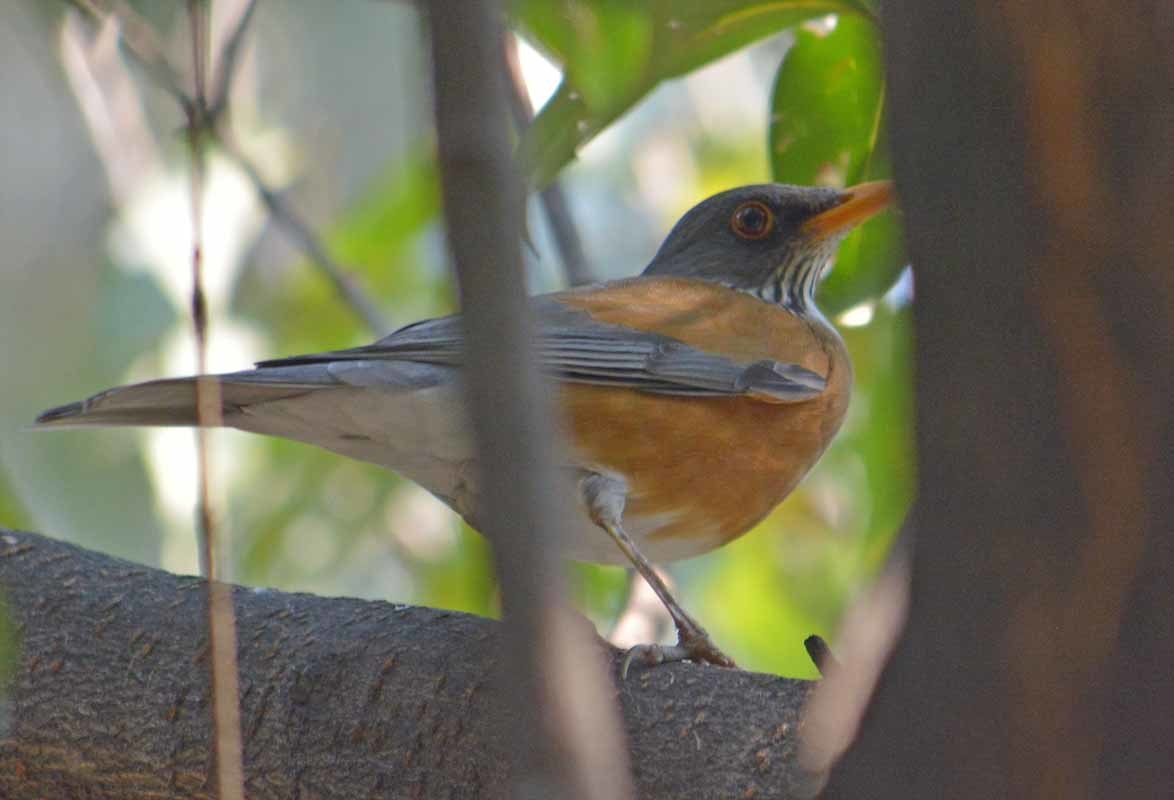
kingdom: Animalia
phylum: Chordata
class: Aves
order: Passeriformes
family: Turdidae
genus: Turdus
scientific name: Turdus rufopalliatus
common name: Rufous-backed robin
